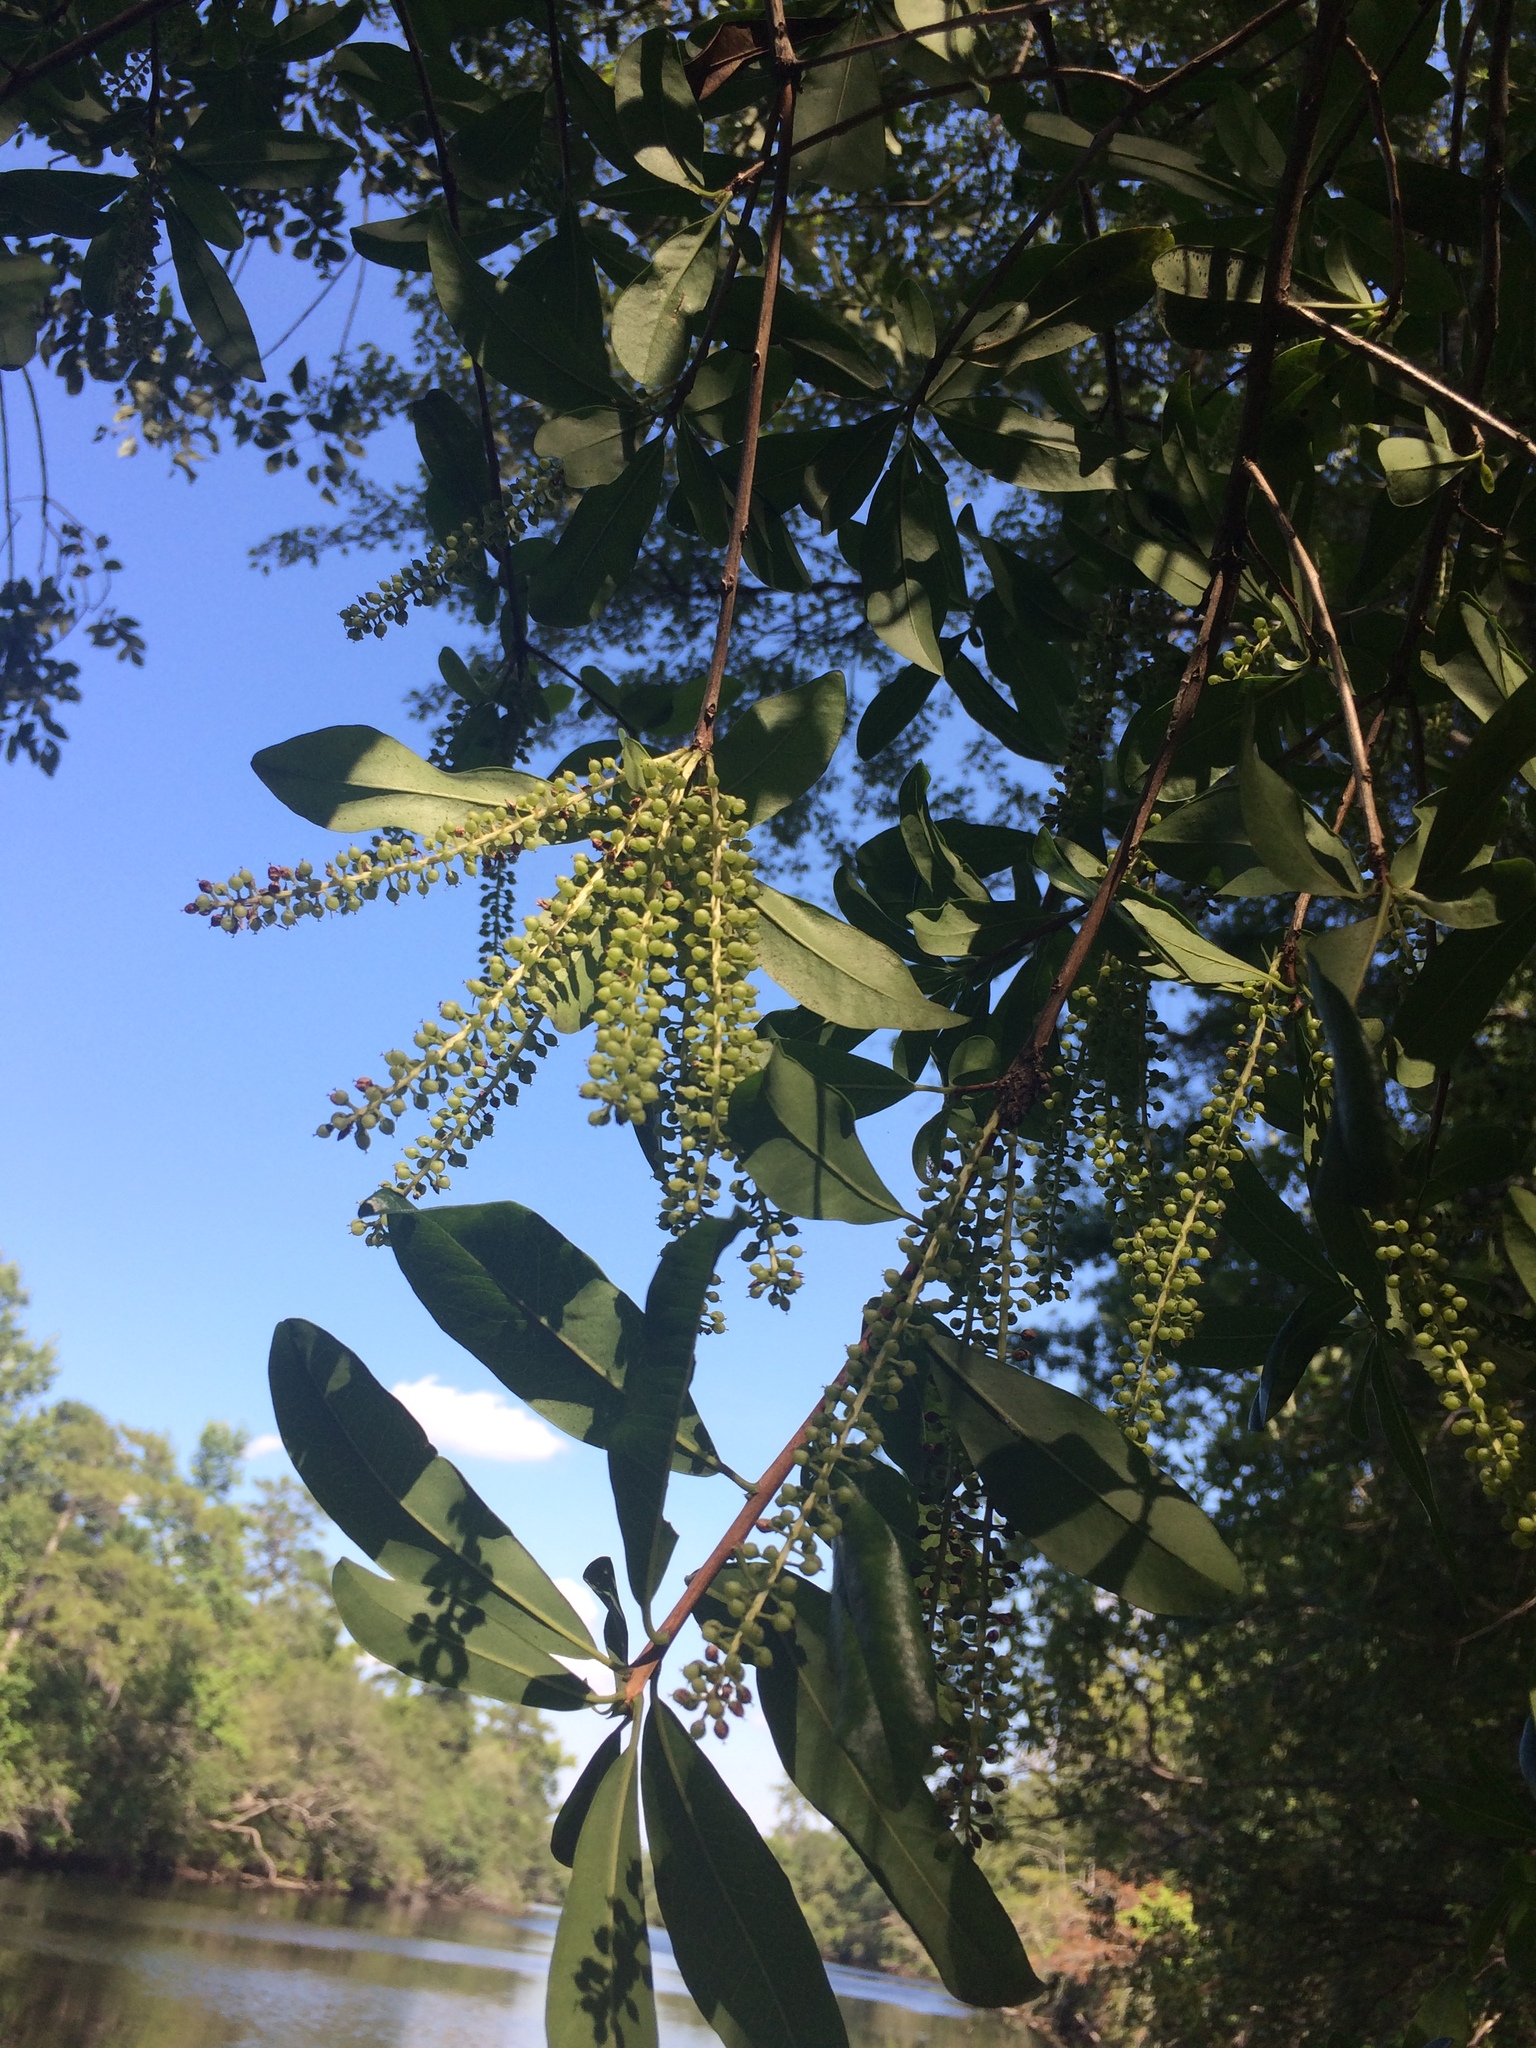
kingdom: Plantae
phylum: Tracheophyta
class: Magnoliopsida
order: Ericales
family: Cyrillaceae
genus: Cyrilla
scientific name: Cyrilla racemiflora
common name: Black titi
